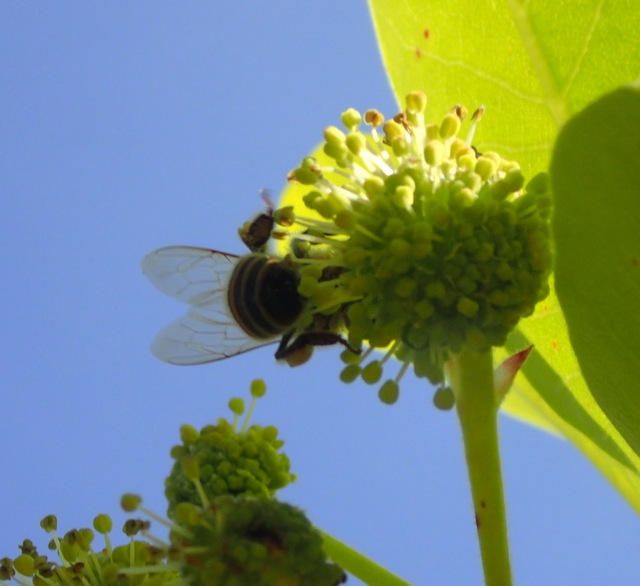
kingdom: Animalia
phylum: Arthropoda
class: Insecta
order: Hymenoptera
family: Apidae
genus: Apis
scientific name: Apis mellifera
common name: Honey bee
